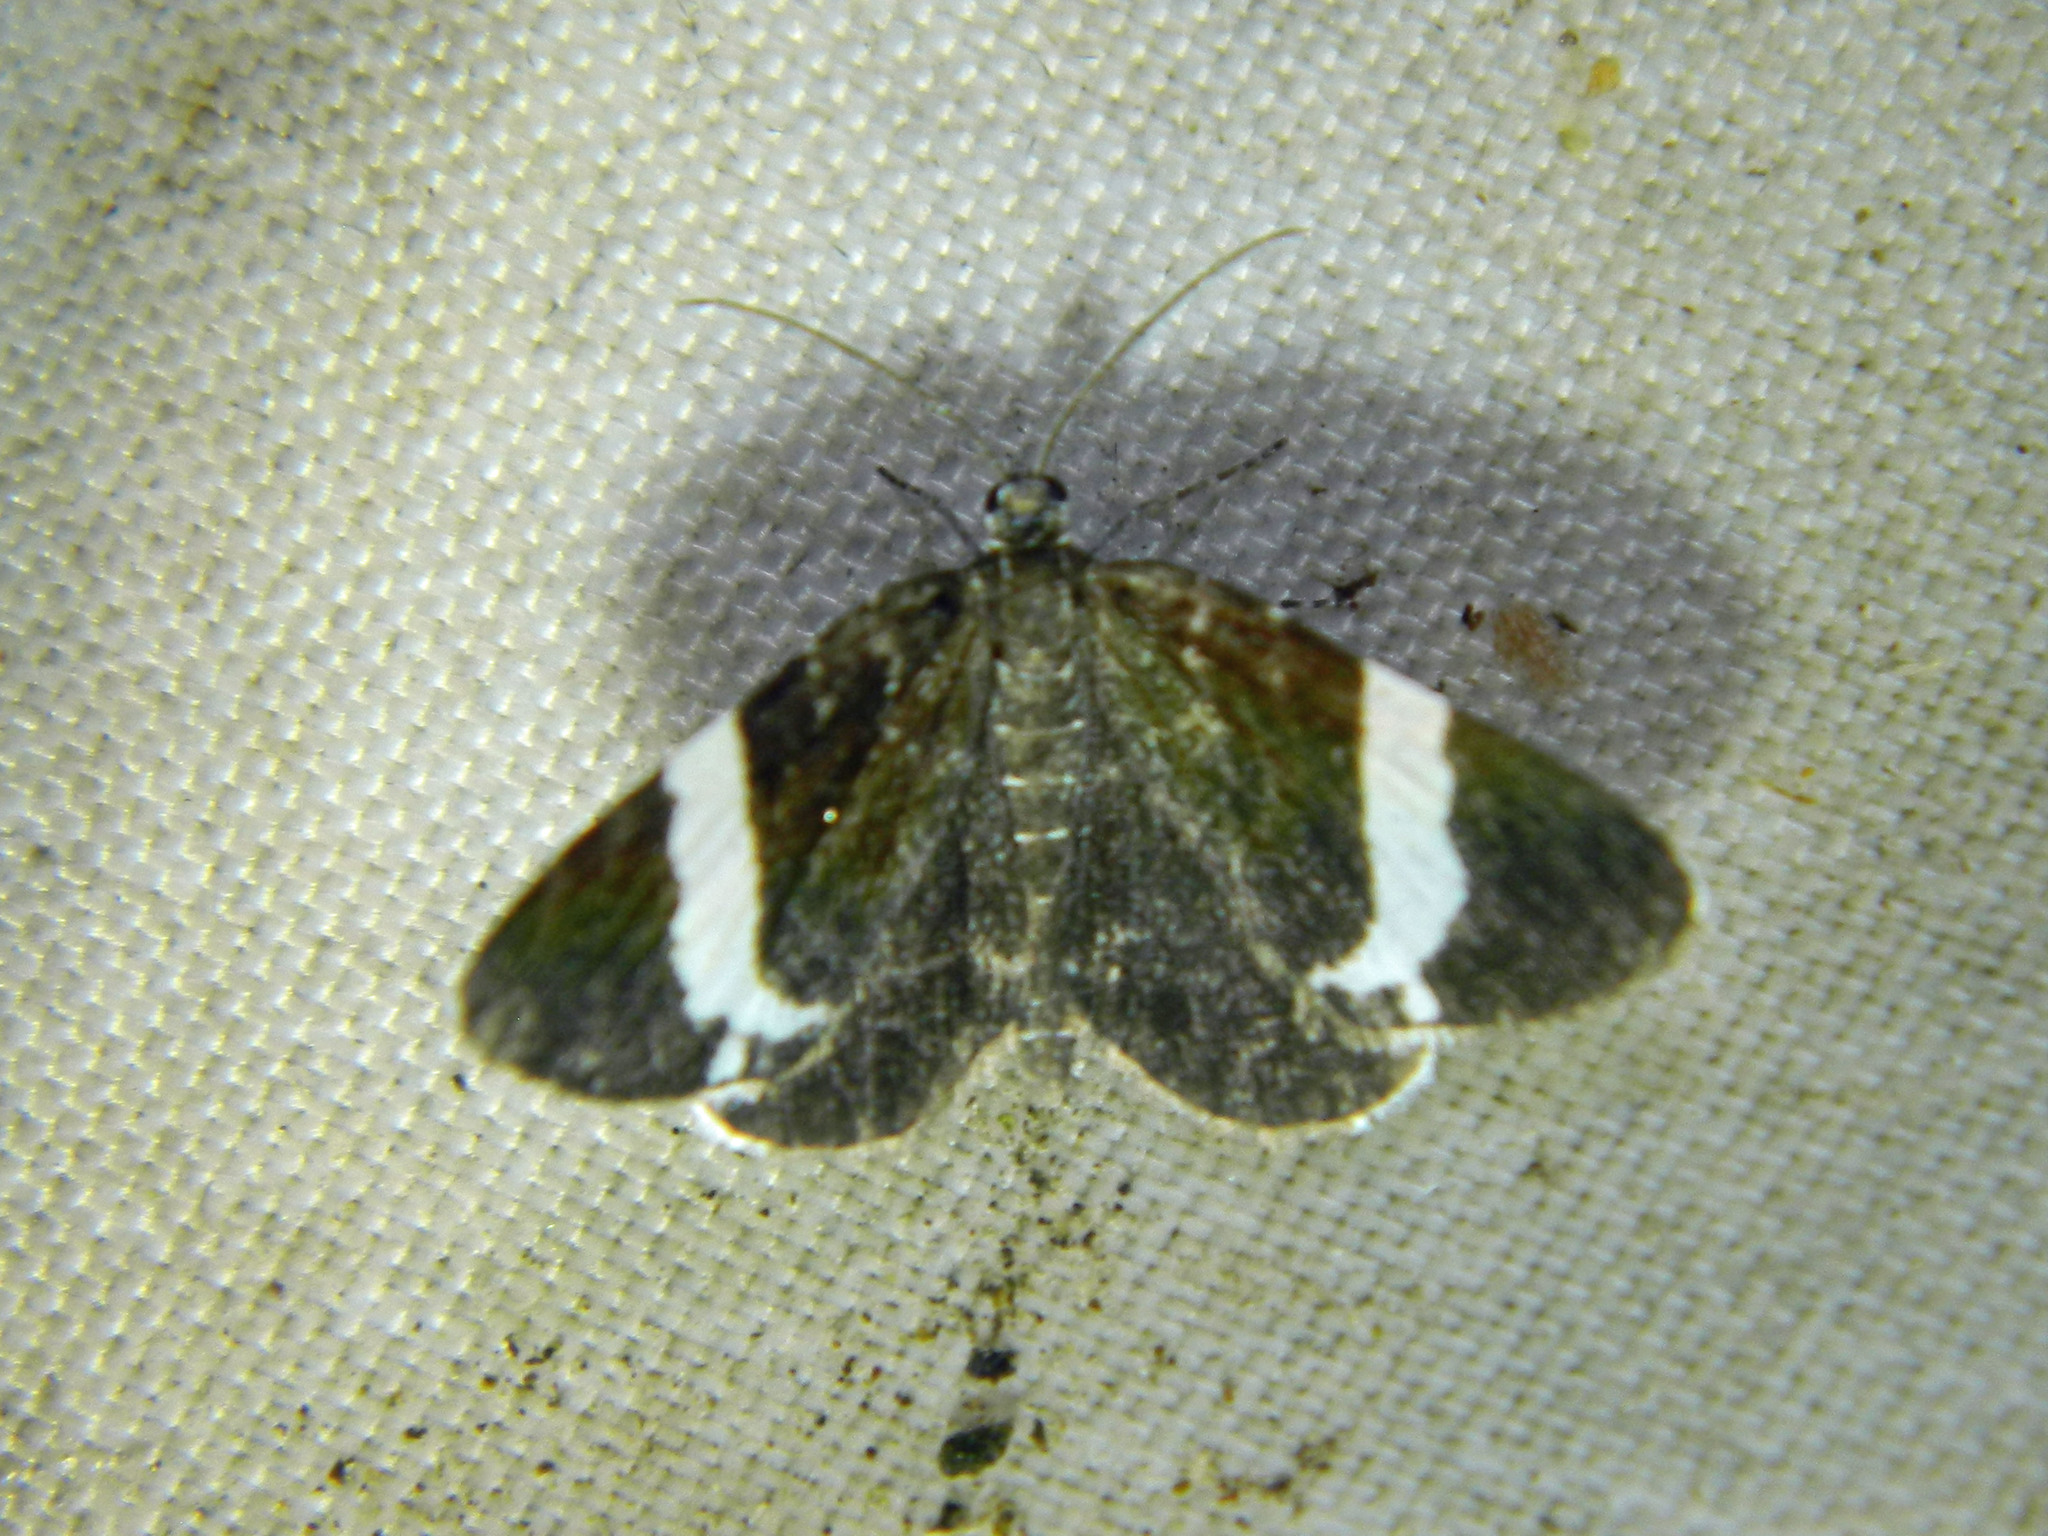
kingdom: Animalia
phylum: Arthropoda
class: Insecta
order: Lepidoptera
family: Geometridae
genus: Trichodezia
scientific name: Trichodezia albovittata
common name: White striped black
